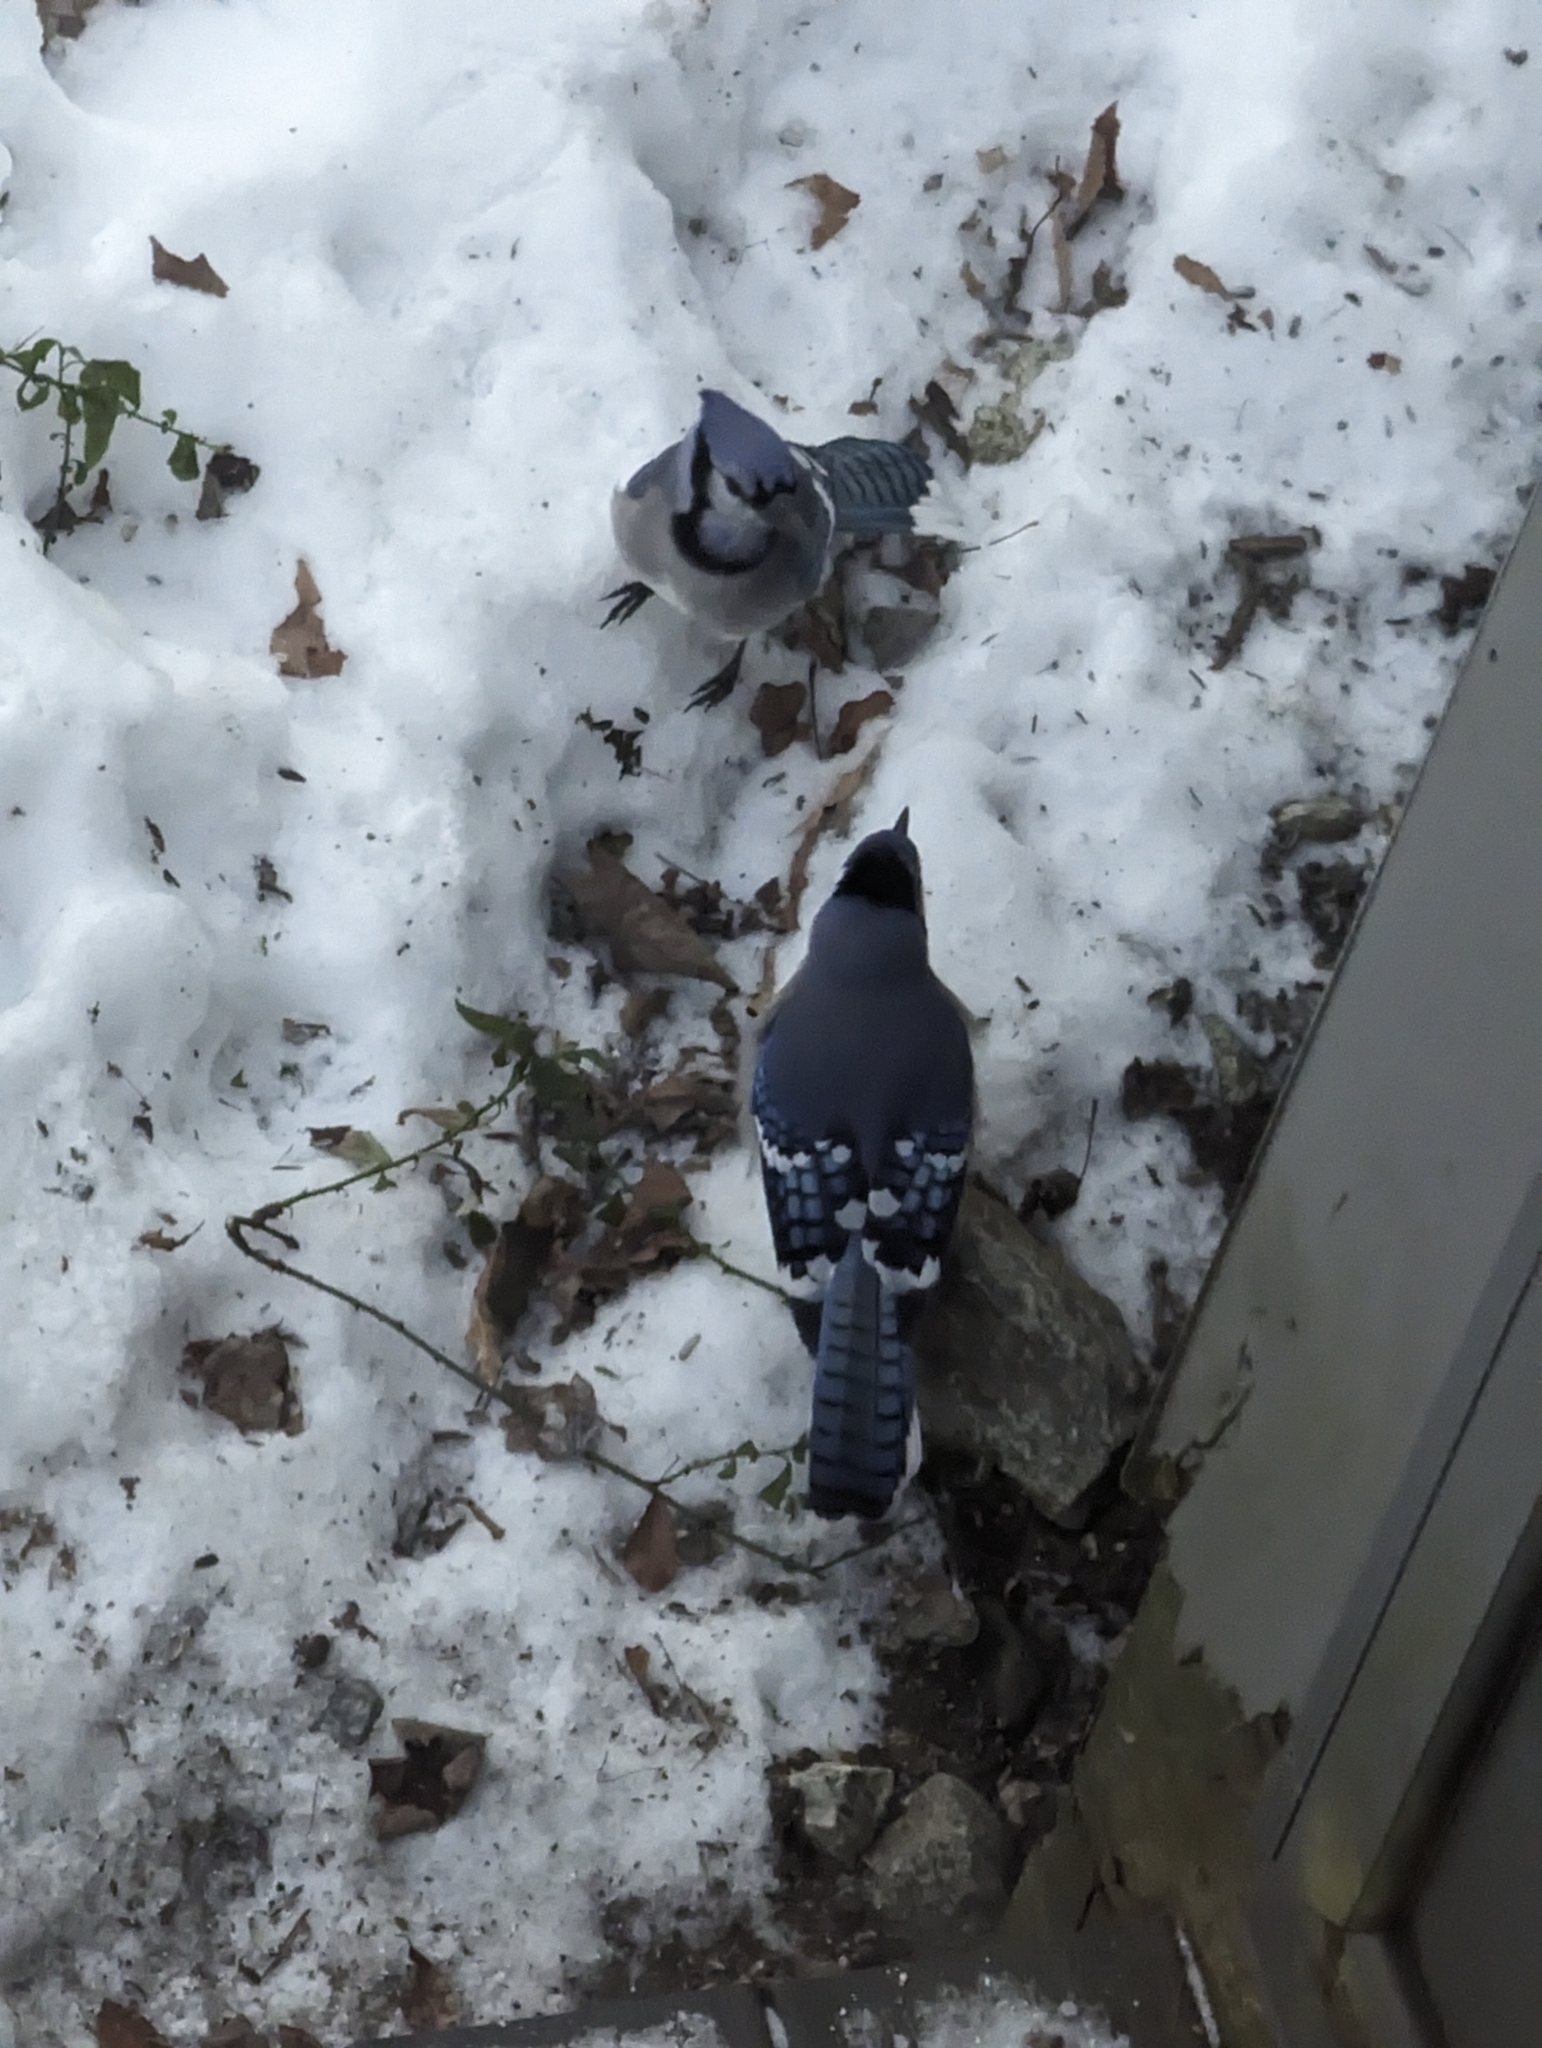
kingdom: Animalia
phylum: Chordata
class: Aves
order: Passeriformes
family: Corvidae
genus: Cyanocitta
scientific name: Cyanocitta cristata
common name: Blue jay
